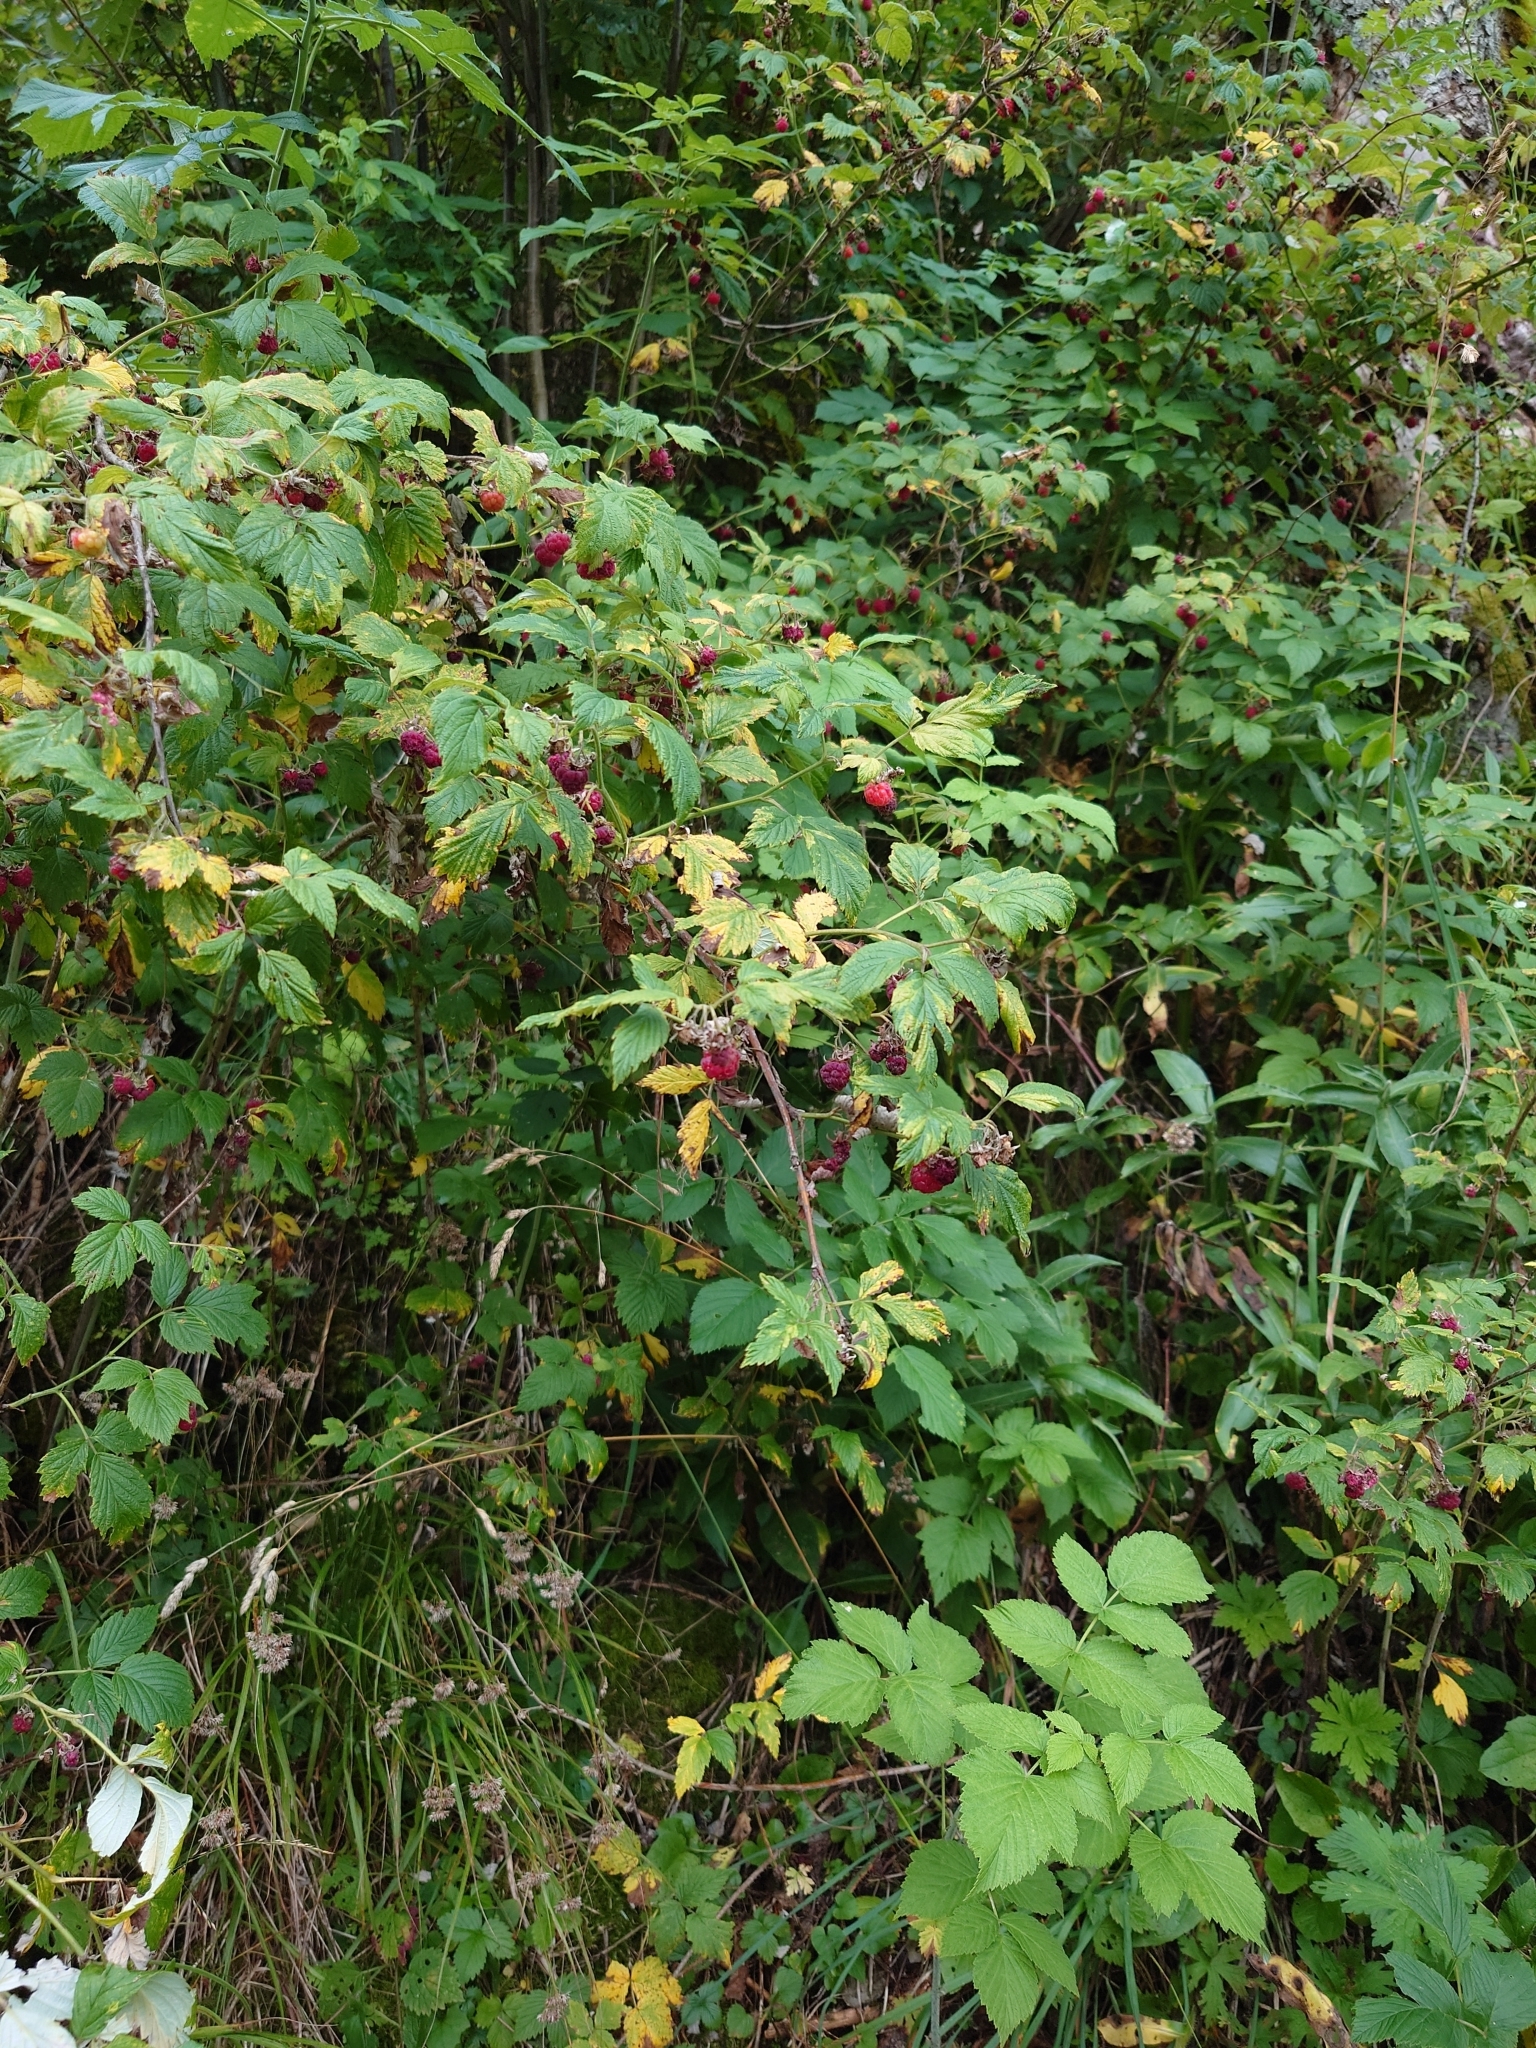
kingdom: Plantae
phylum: Tracheophyta
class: Magnoliopsida
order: Rosales
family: Rosaceae
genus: Rubus
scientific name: Rubus idaeus
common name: Raspberry
